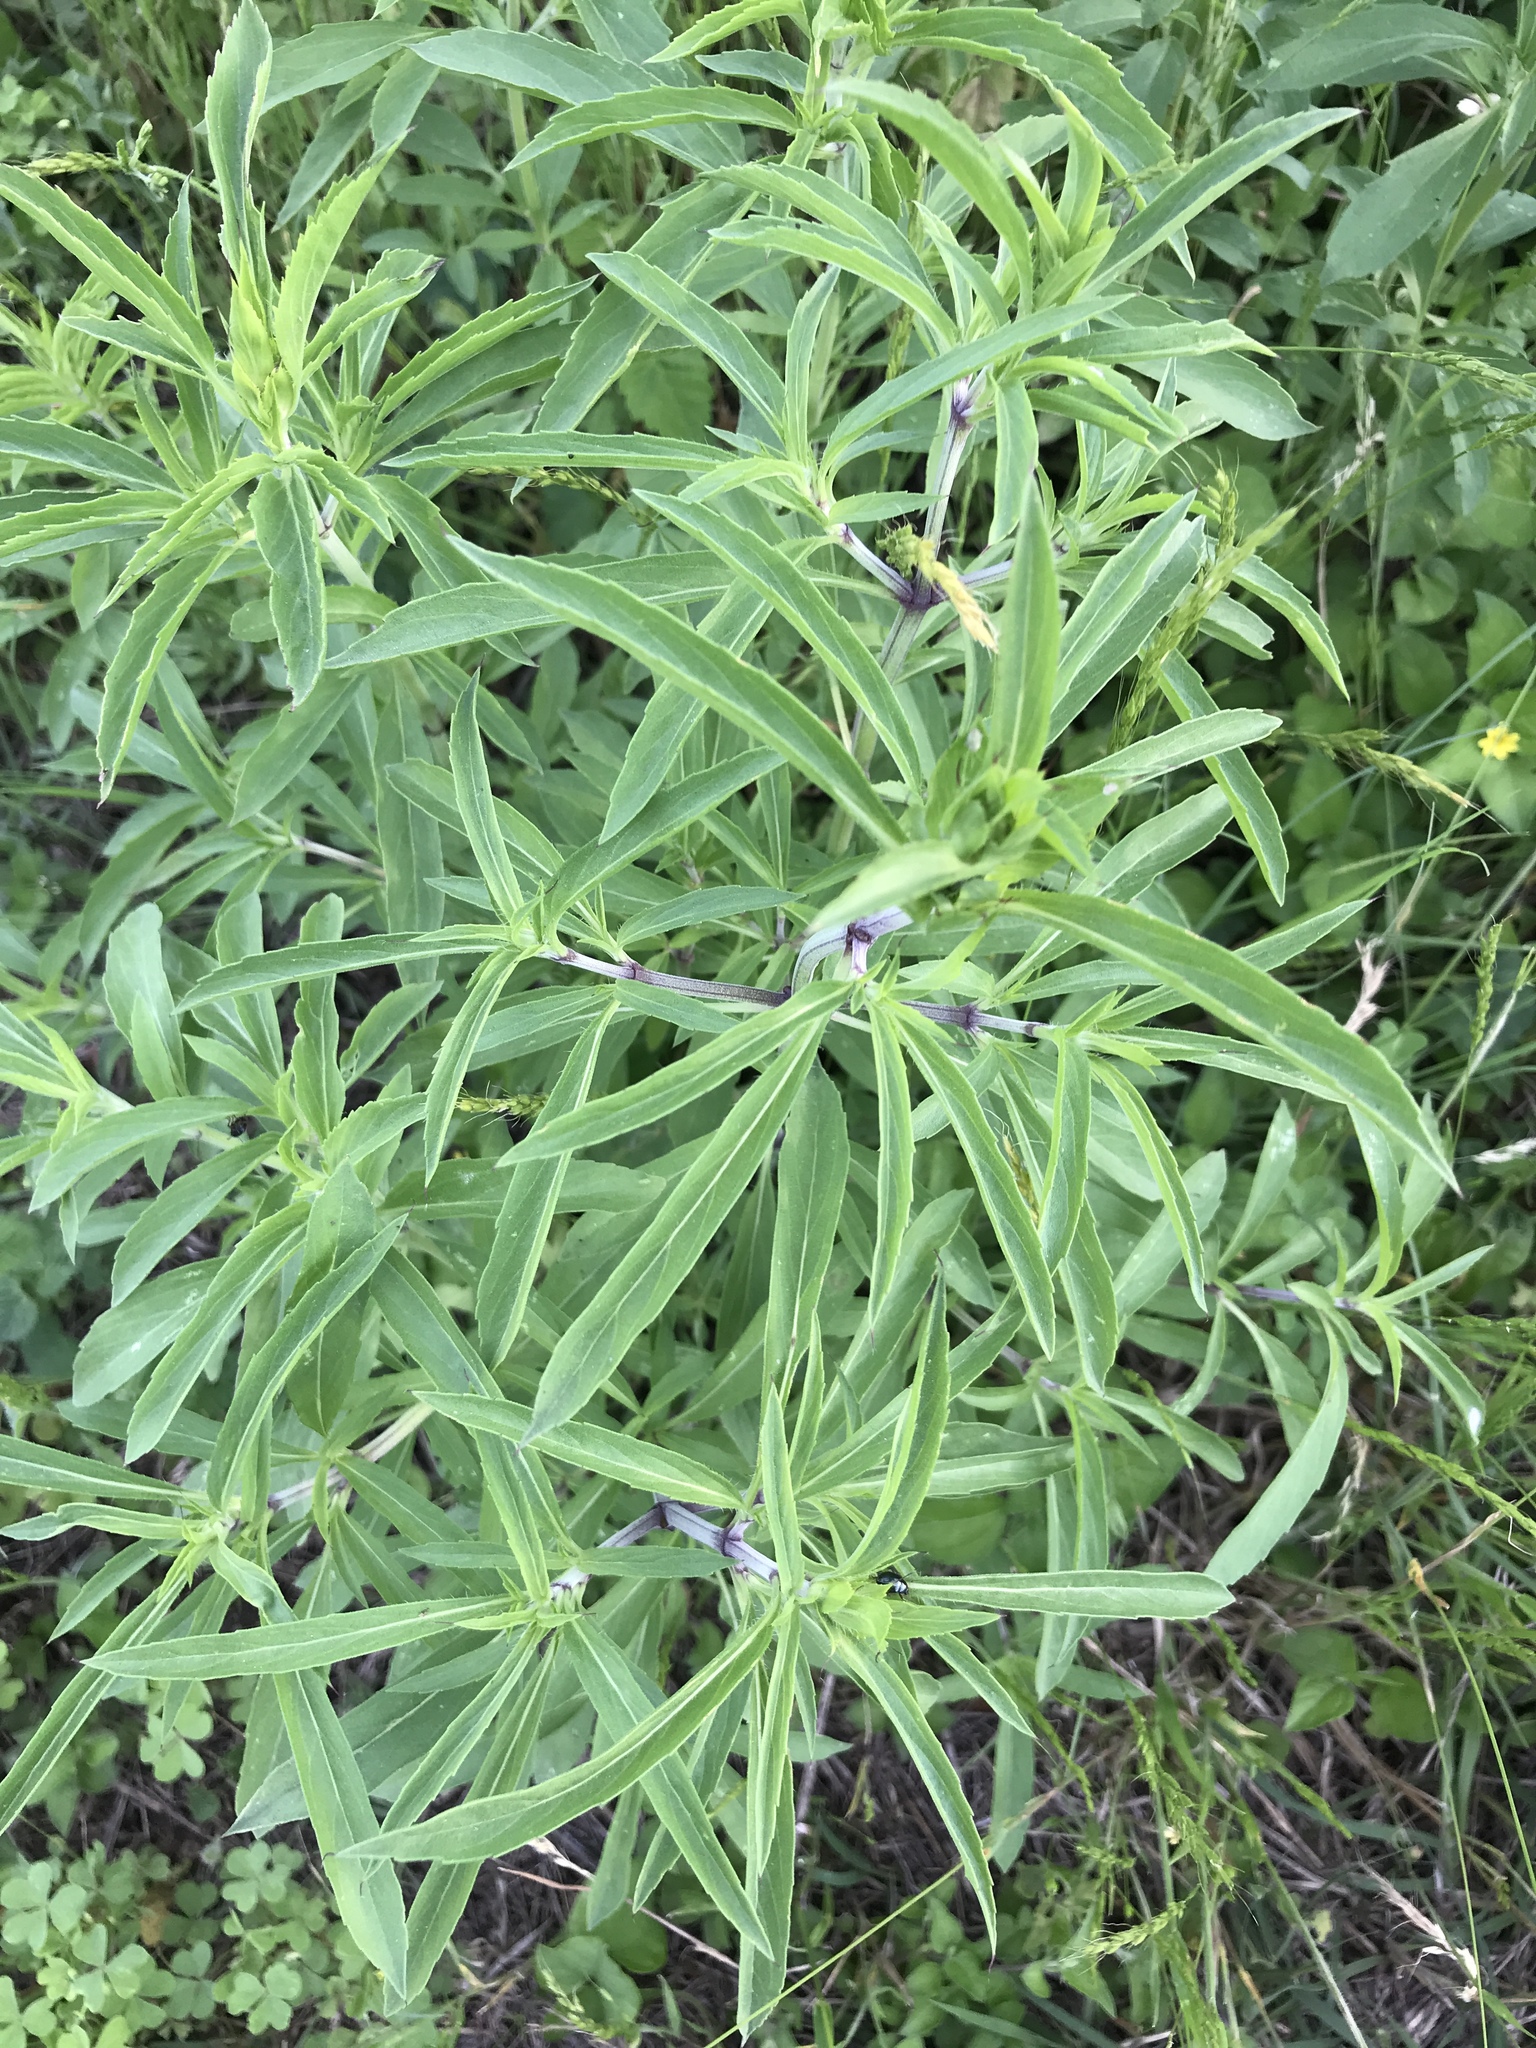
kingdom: Plantae
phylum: Tracheophyta
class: Magnoliopsida
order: Lamiales
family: Lamiaceae
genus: Salvia
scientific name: Salvia farinacea
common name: Mealy sage
